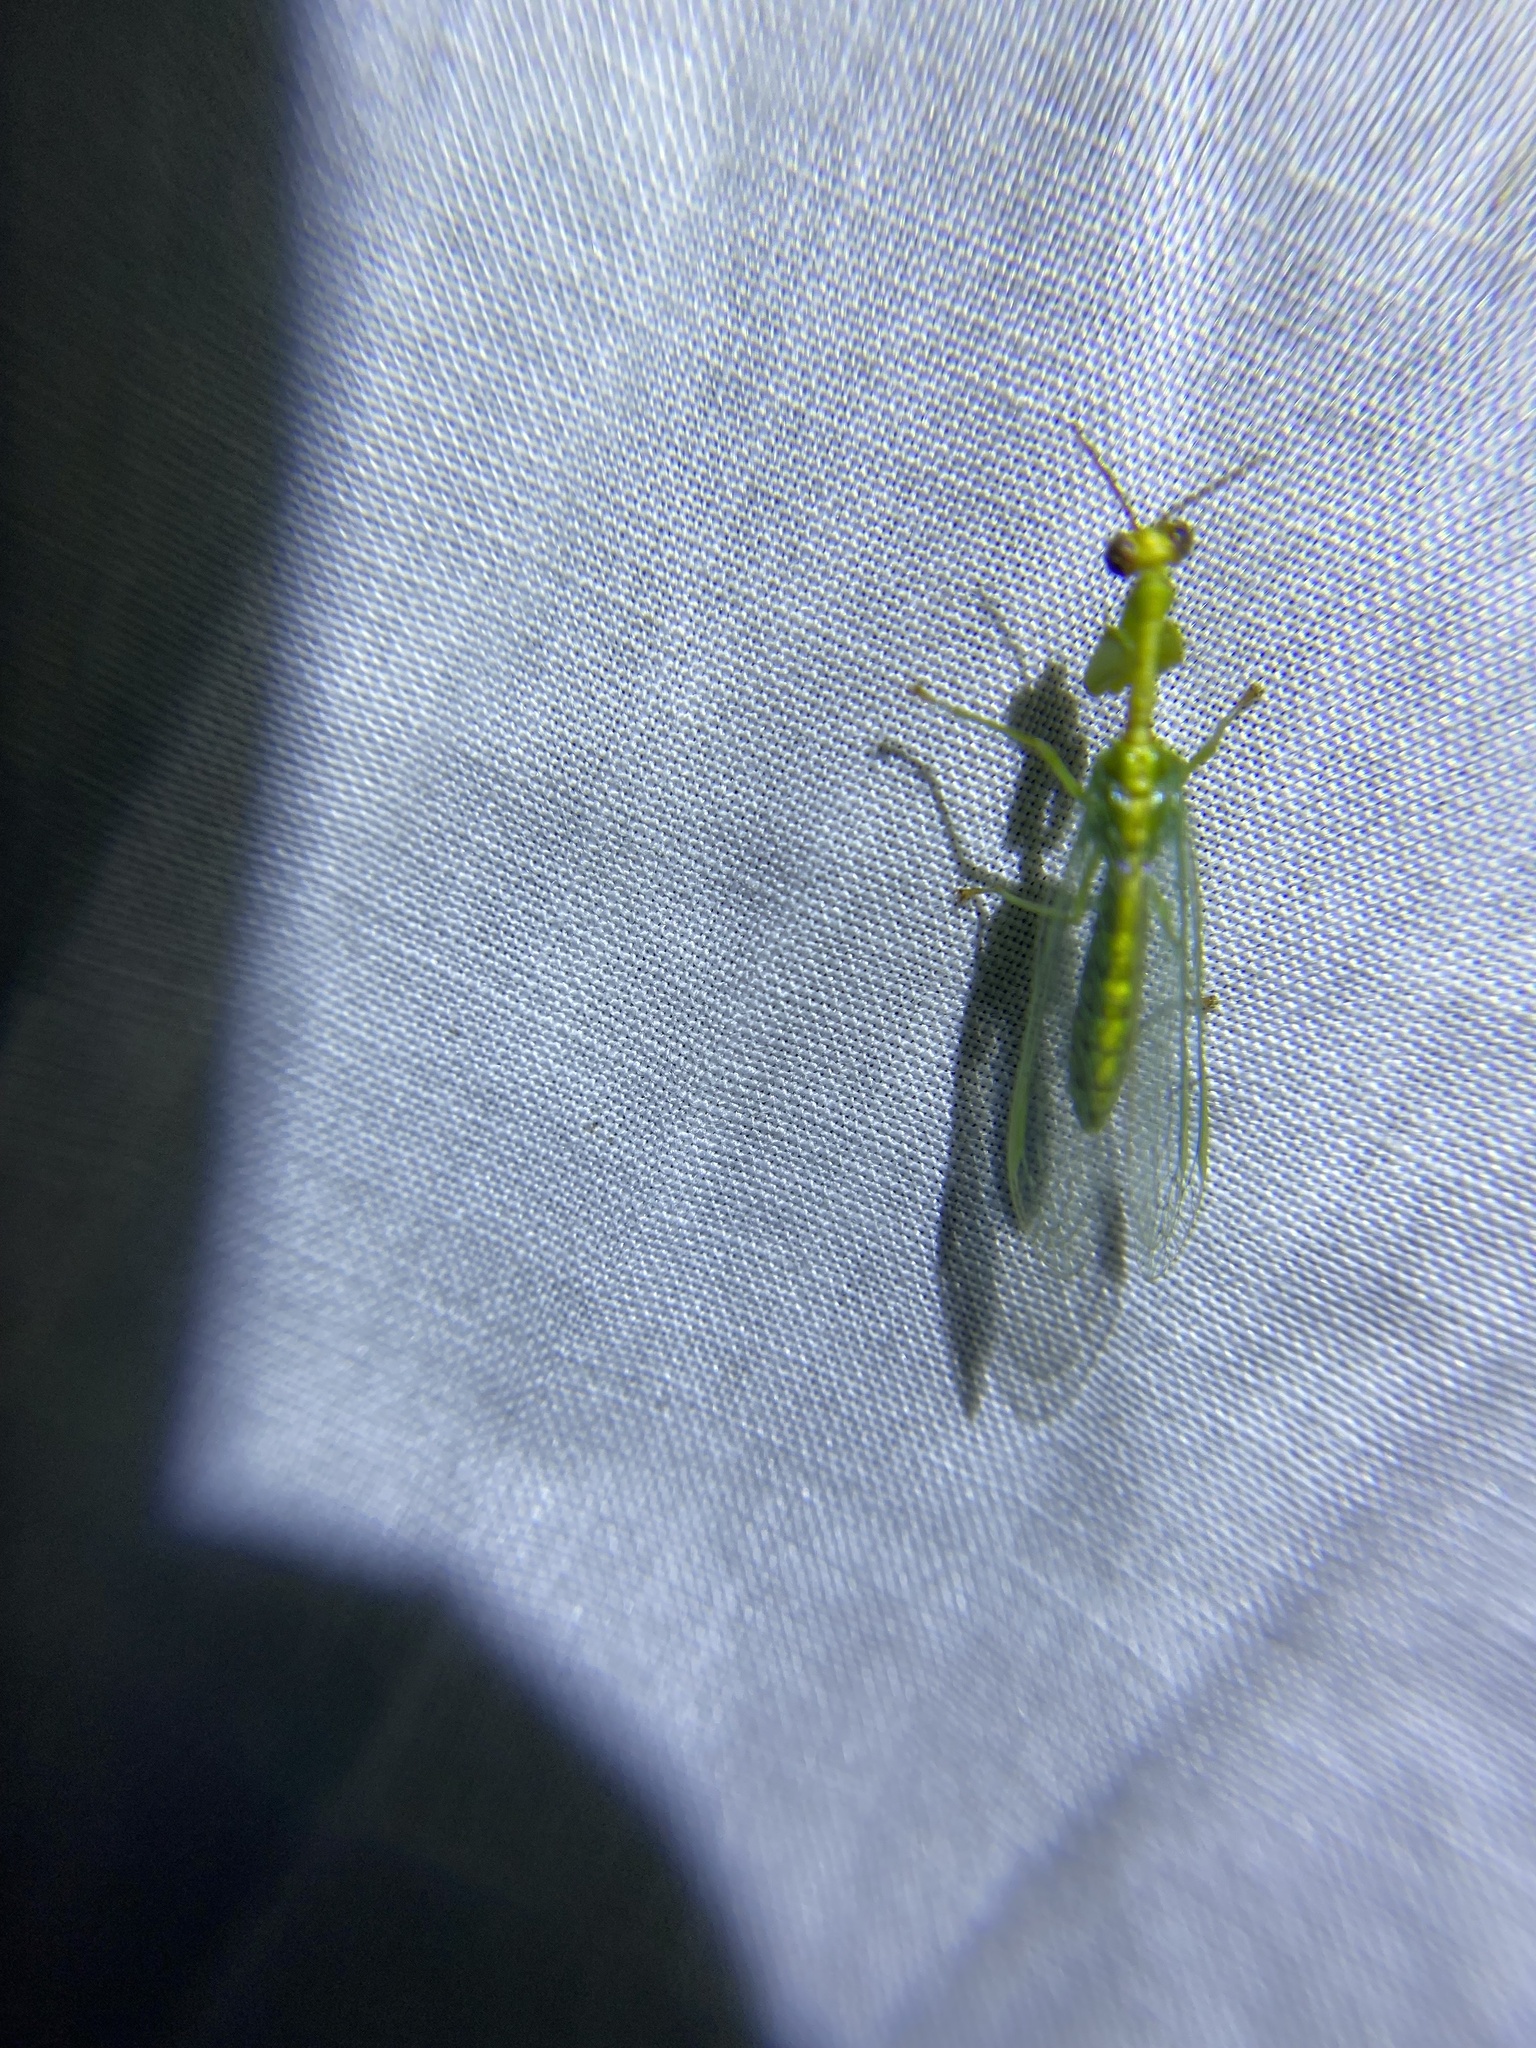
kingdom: Animalia
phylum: Arthropoda
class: Insecta
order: Neuroptera
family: Mantispidae
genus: Zeugomantispa
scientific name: Zeugomantispa minuta
